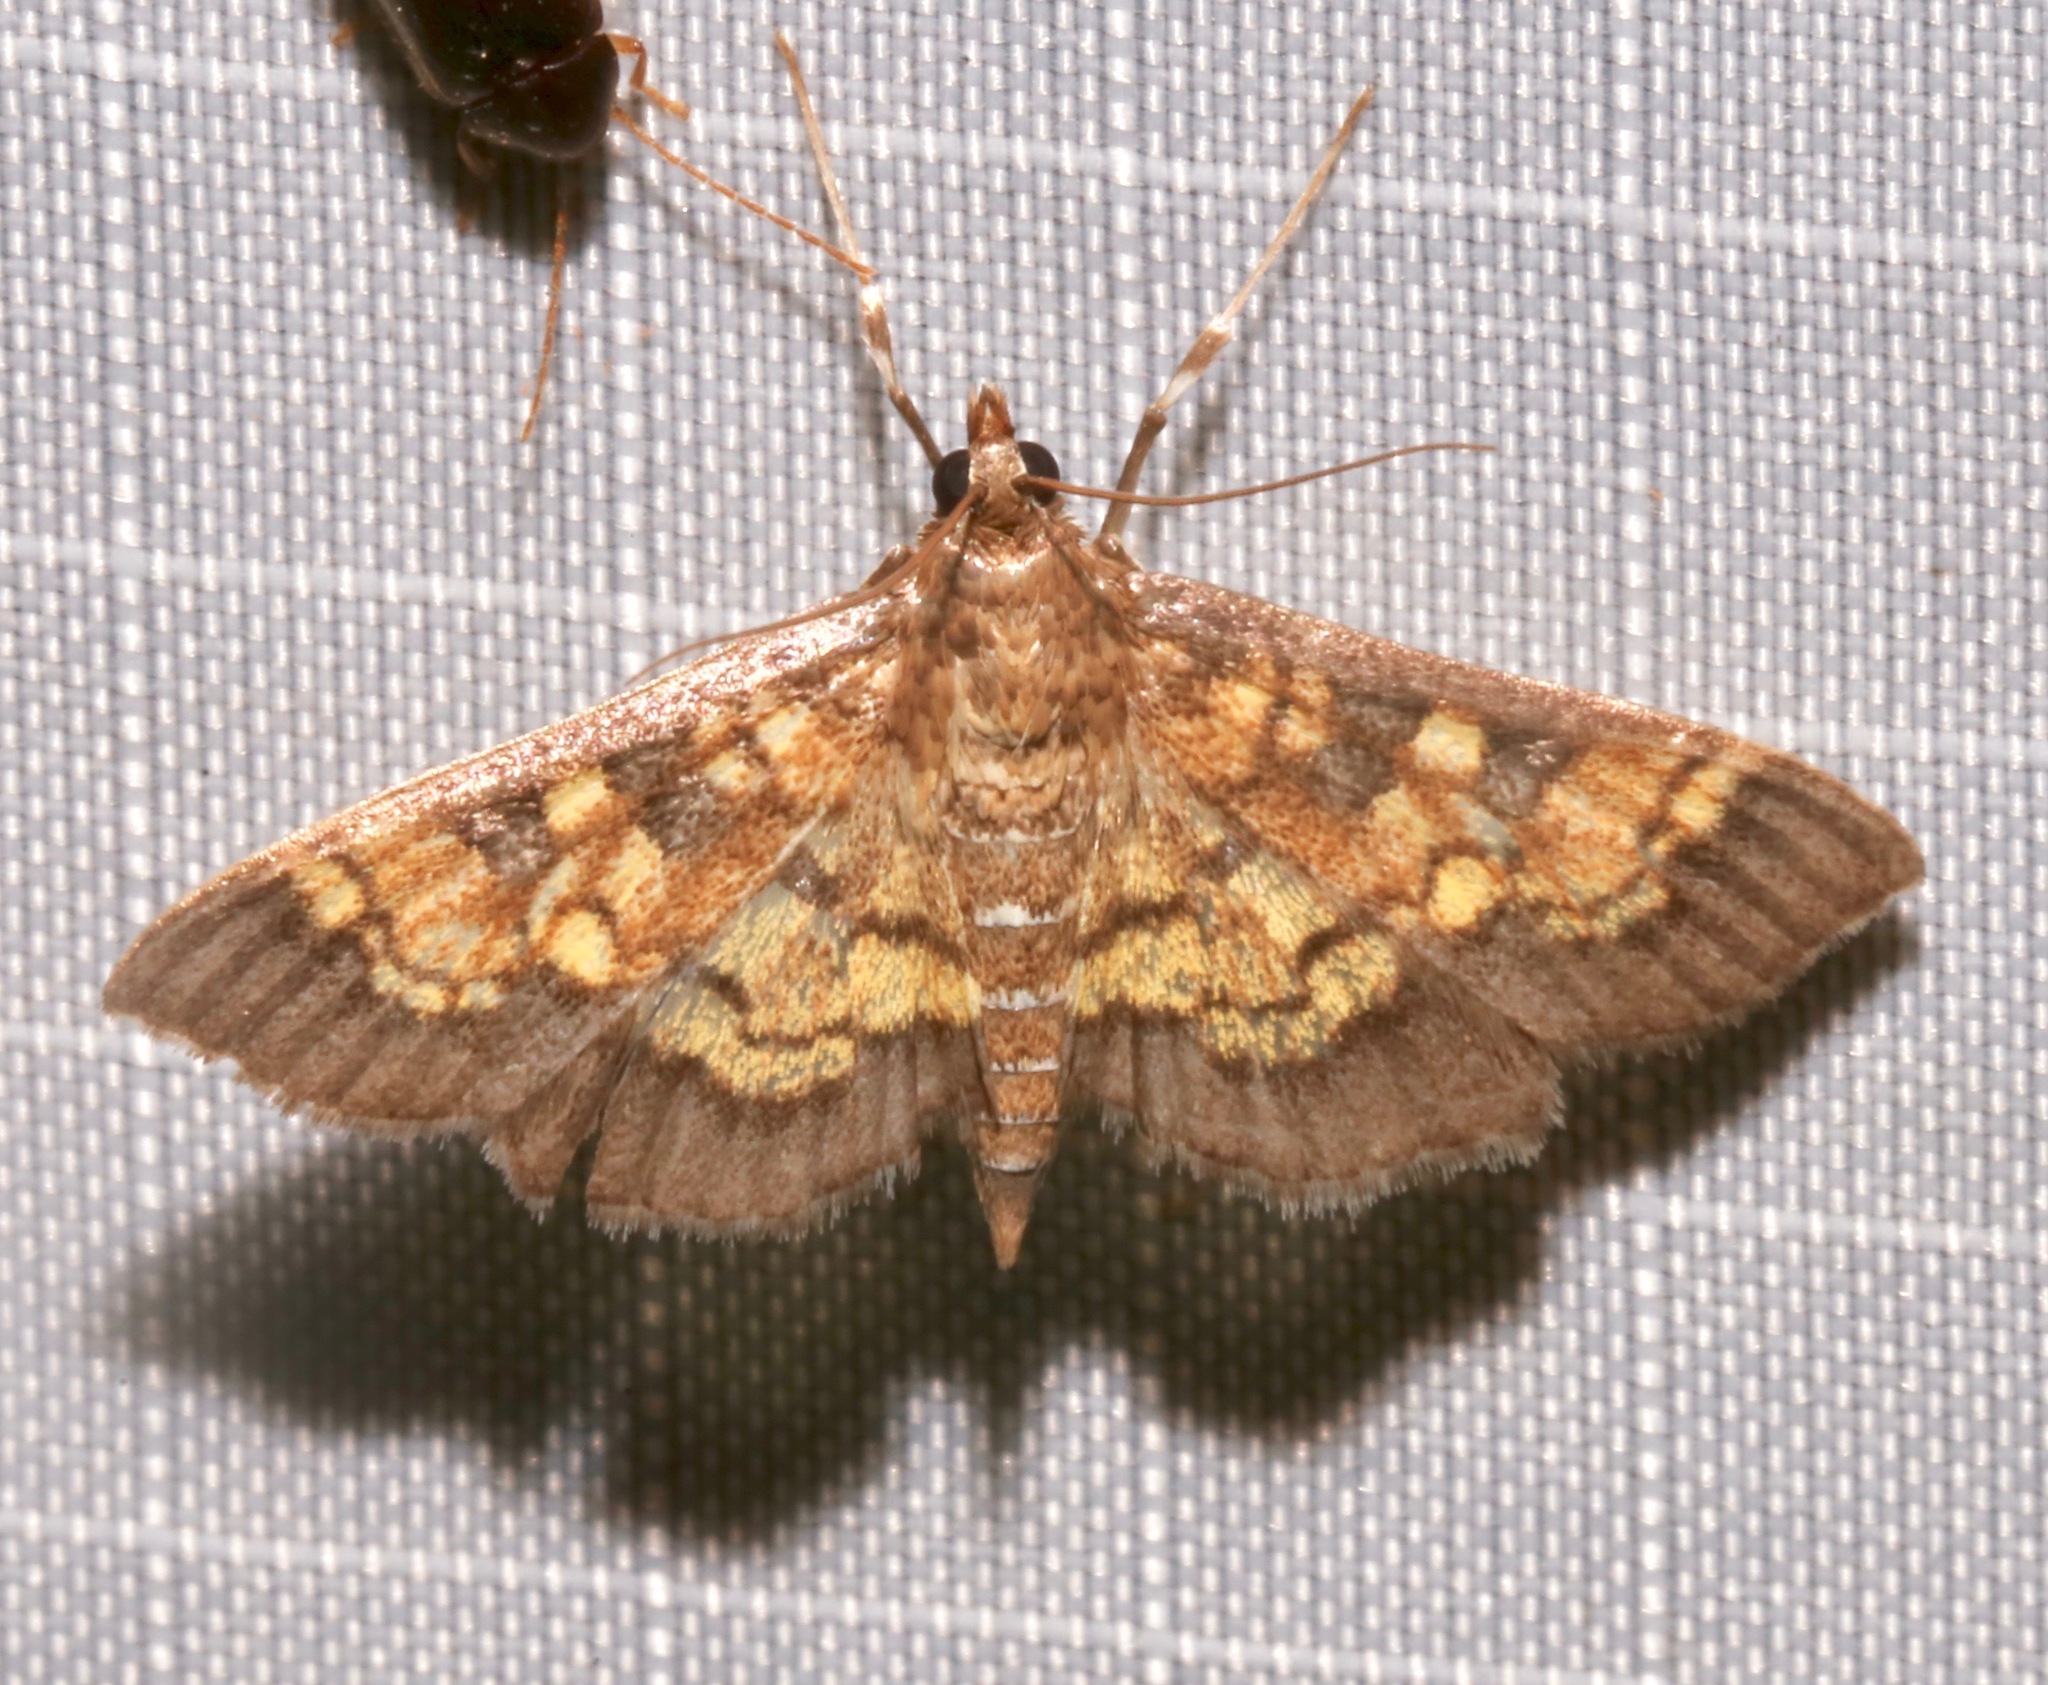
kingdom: Animalia
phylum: Arthropoda
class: Insecta
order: Lepidoptera
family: Crambidae
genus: Epipagis
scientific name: Epipagis adipaloides
